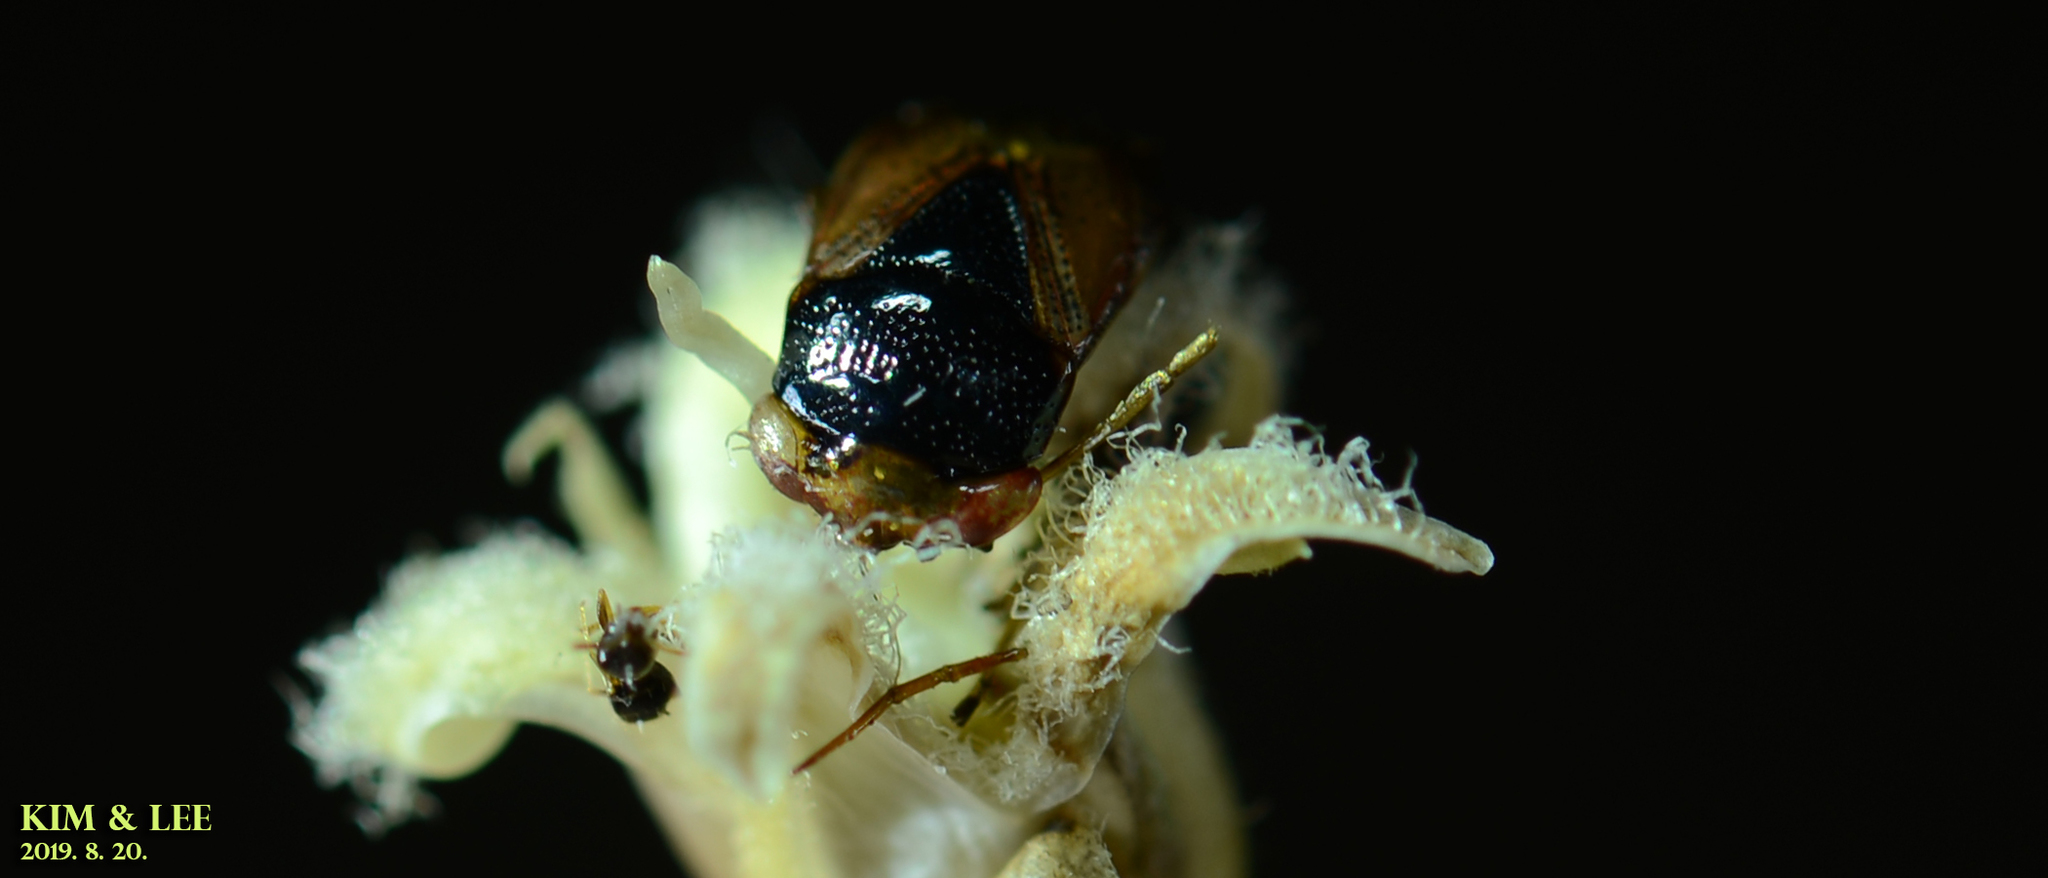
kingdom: Animalia
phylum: Arthropoda
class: Insecta
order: Hemiptera
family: Geocoridae
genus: Geocoris
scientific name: Geocoris varius
